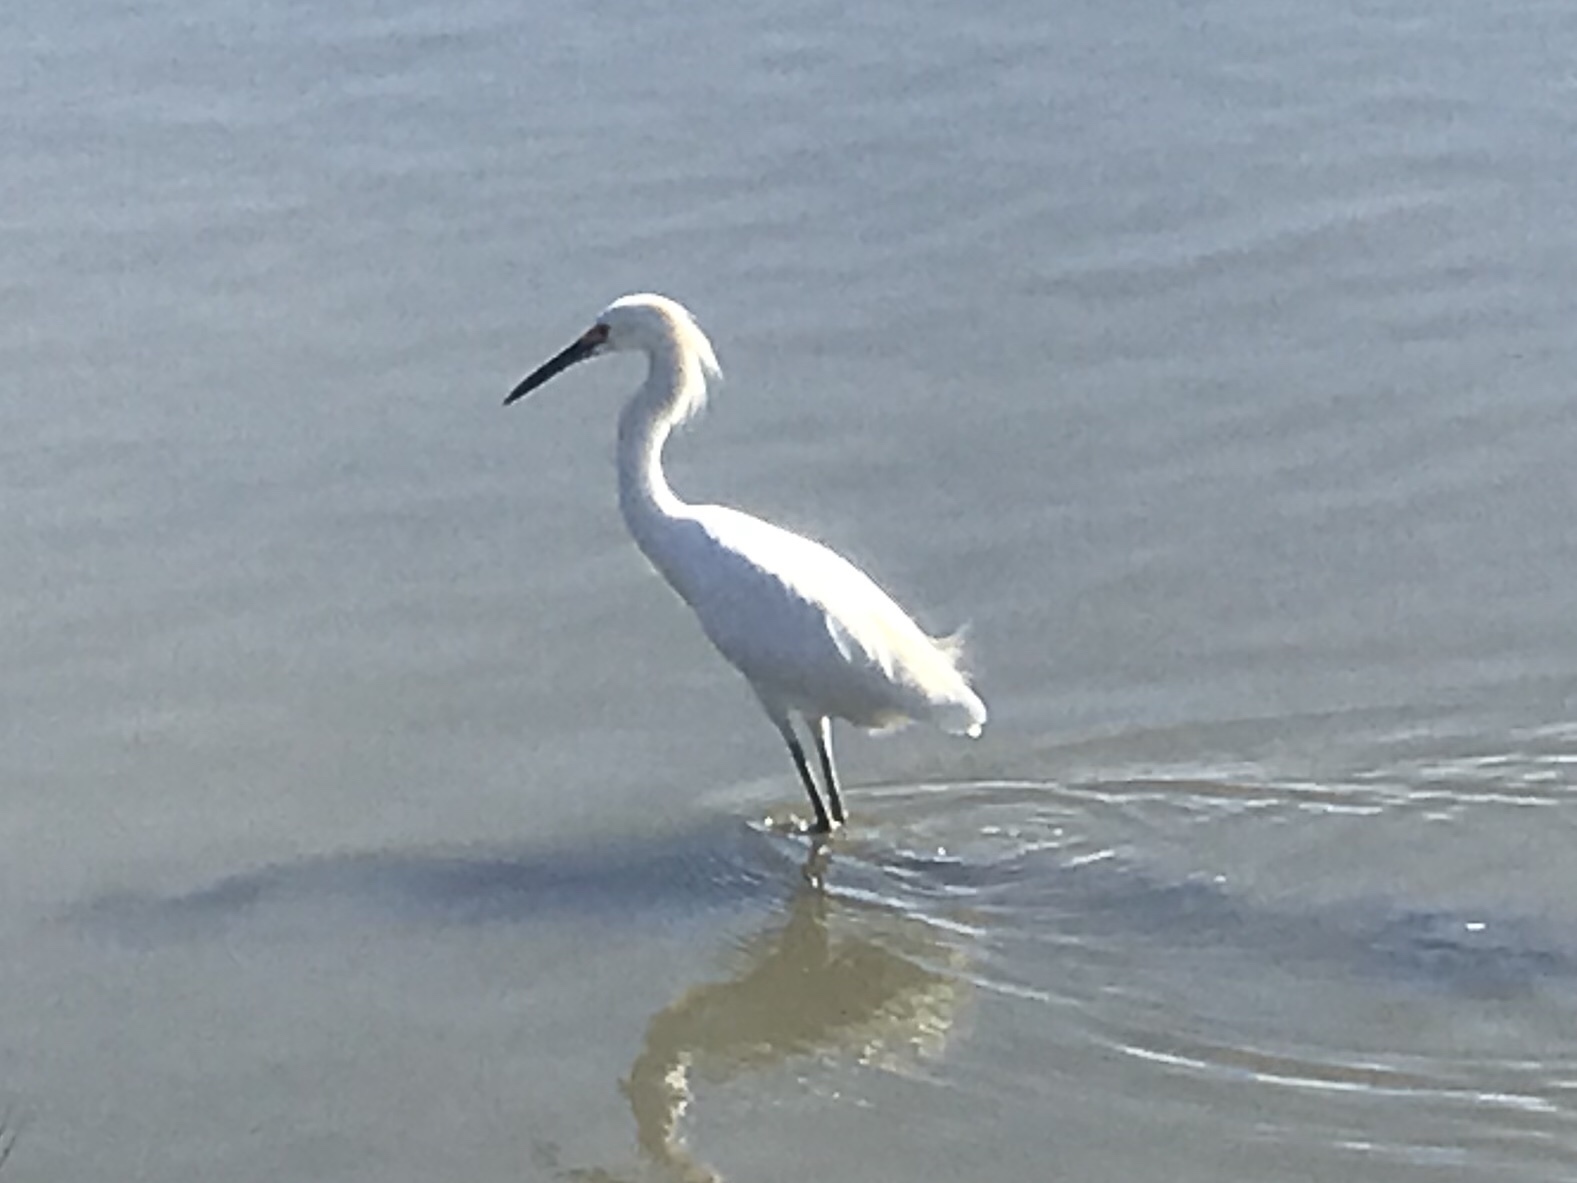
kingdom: Animalia
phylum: Chordata
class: Aves
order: Pelecaniformes
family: Ardeidae
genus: Egretta
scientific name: Egretta thula
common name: Snowy egret
